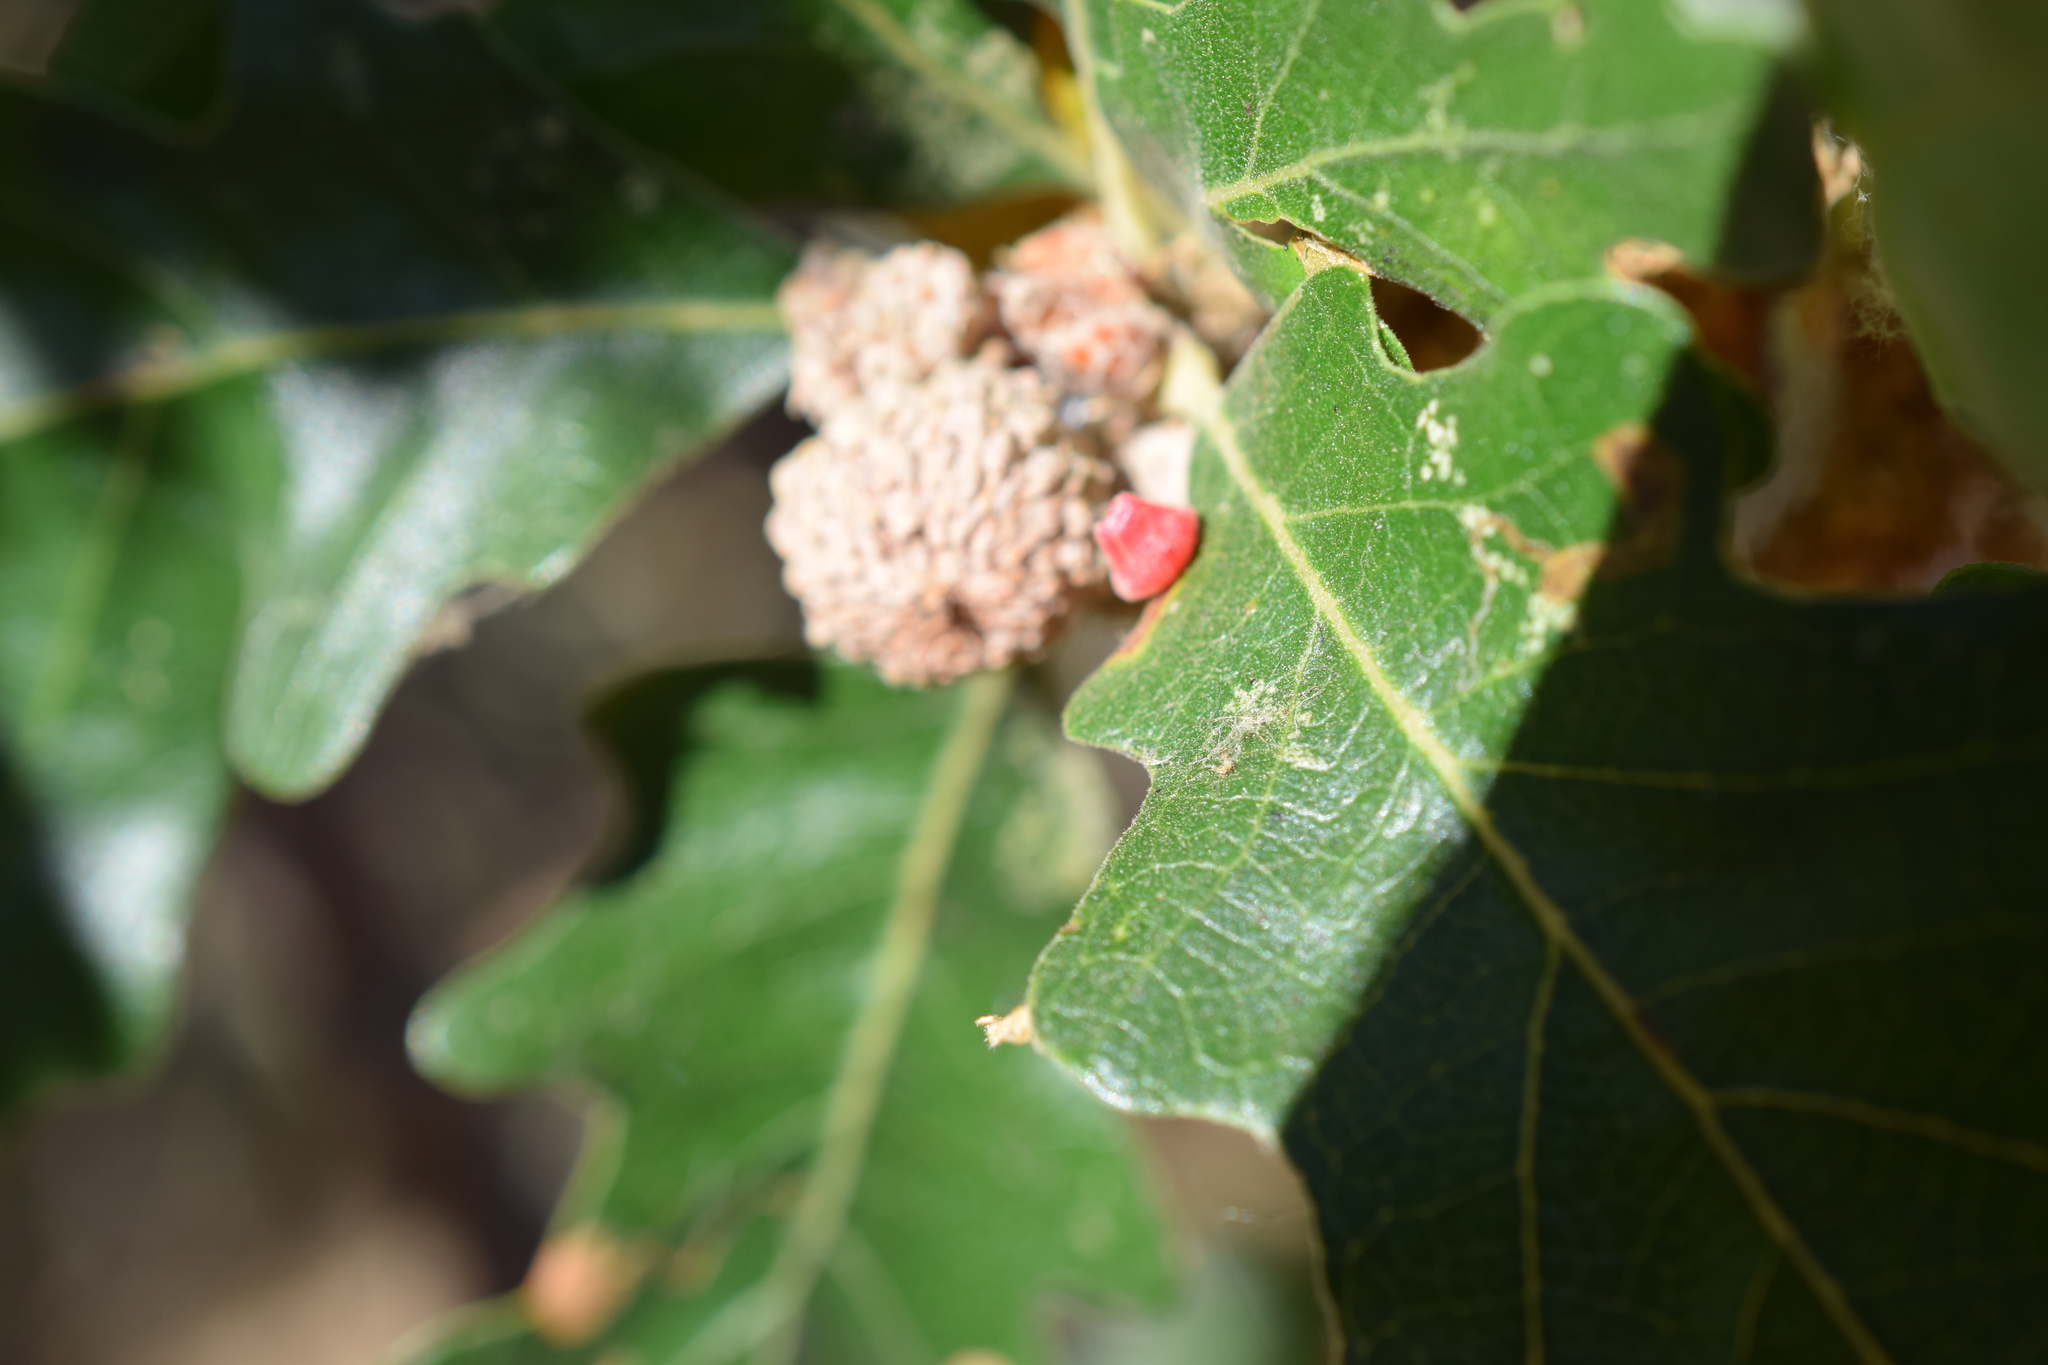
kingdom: Animalia
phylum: Arthropoda
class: Insecta
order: Hymenoptera
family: Cynipidae
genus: Andricus
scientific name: Andricus
